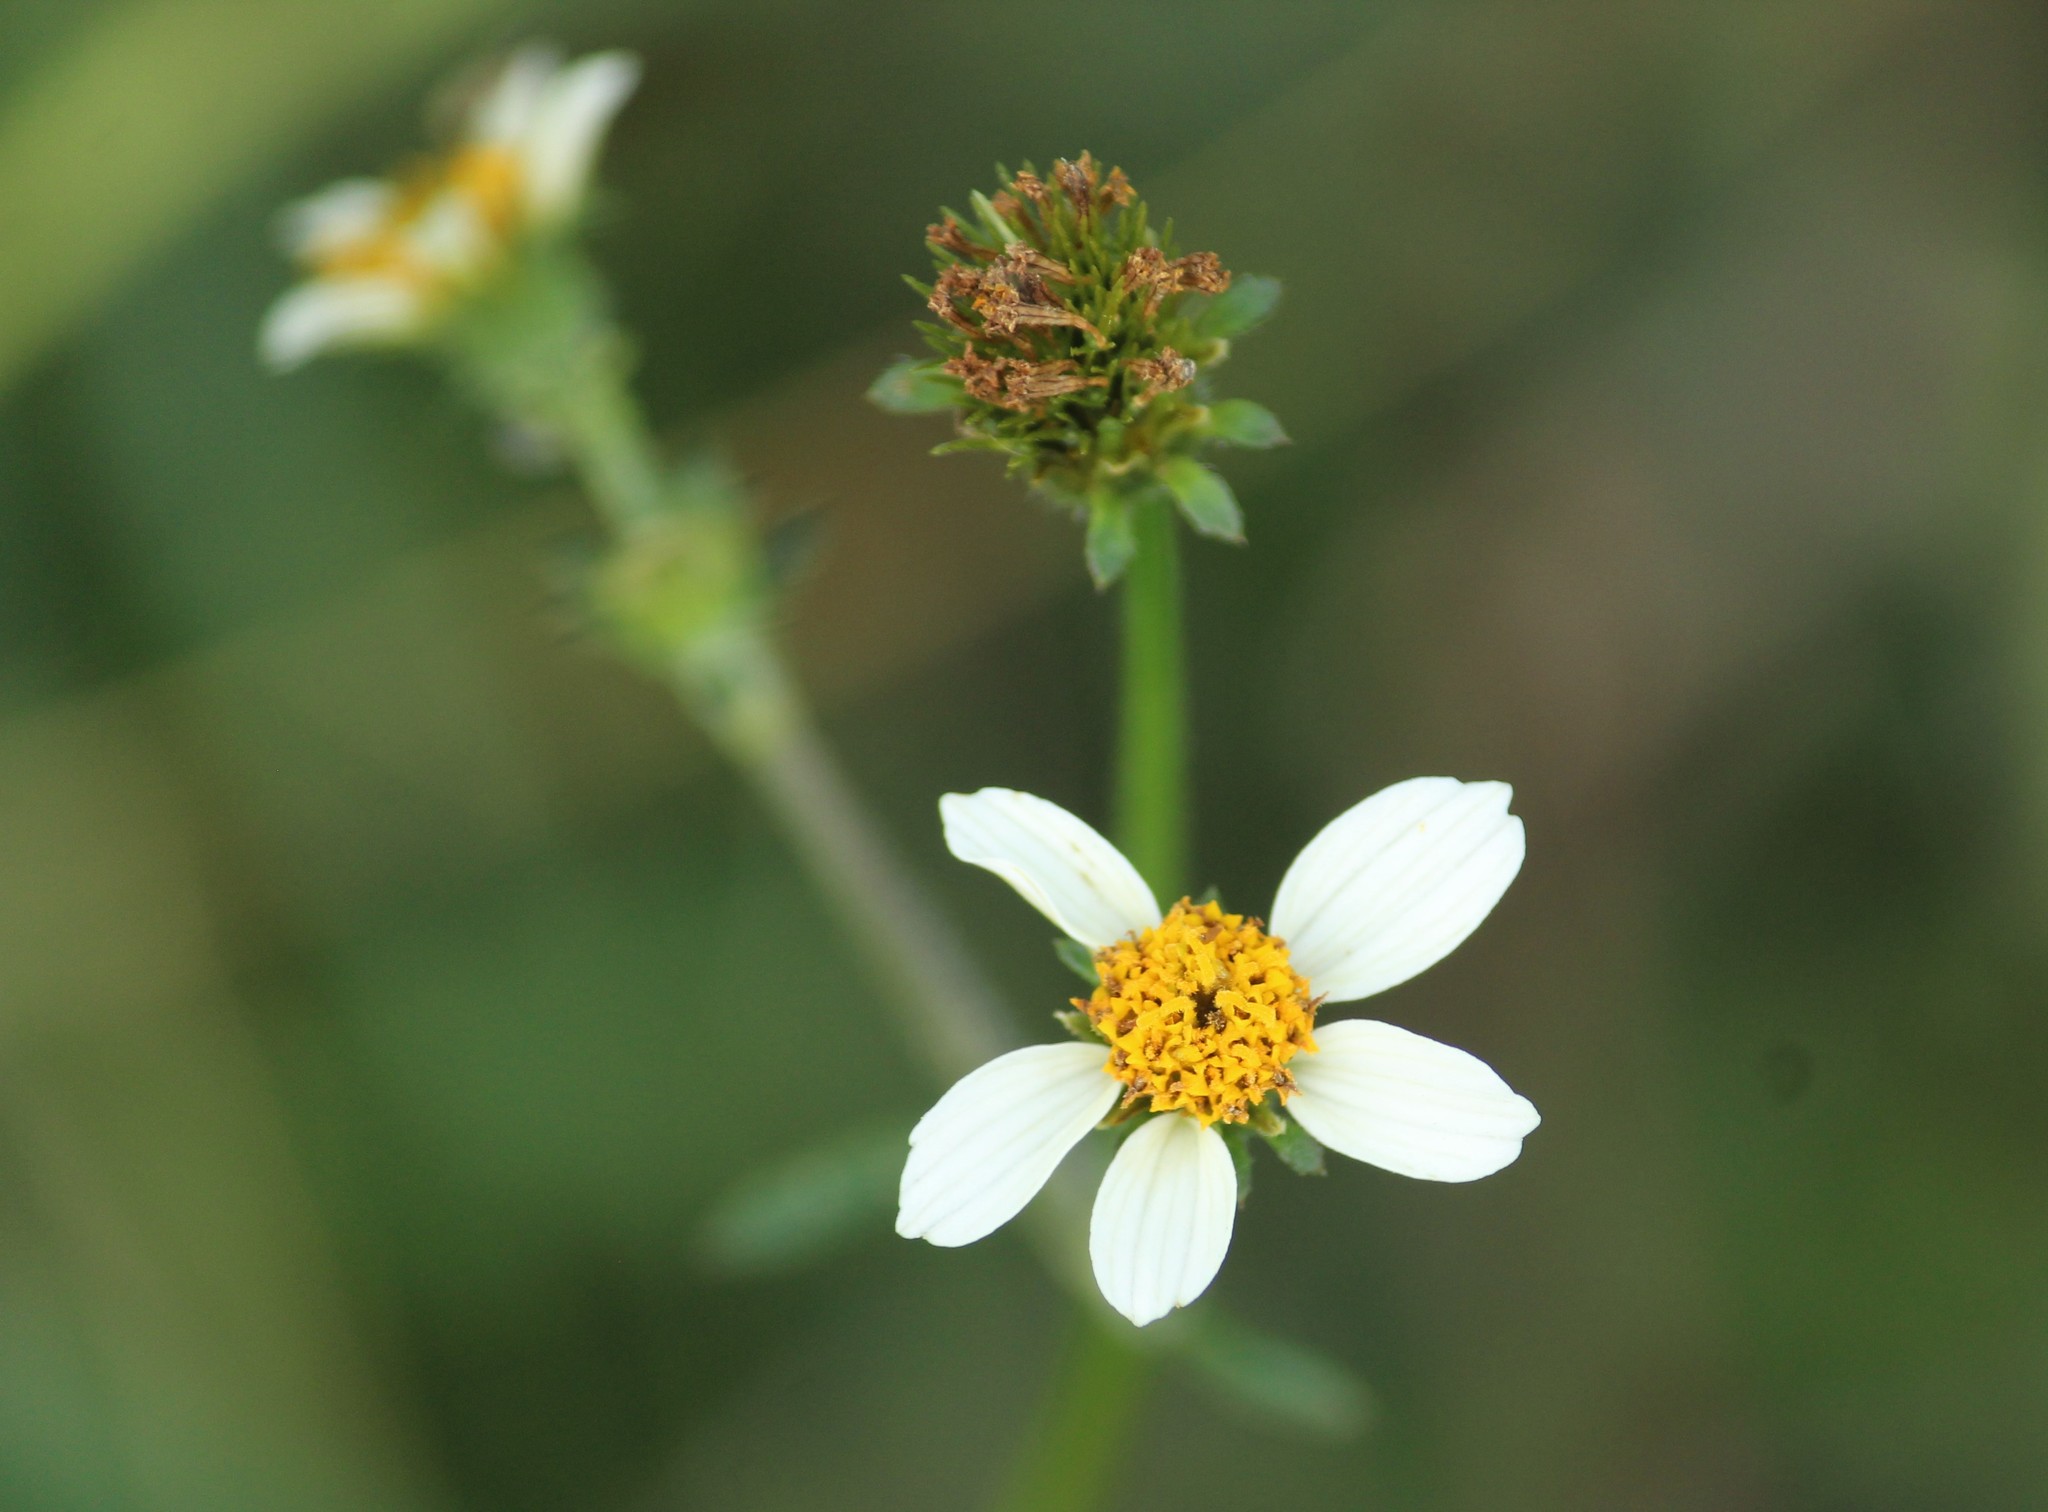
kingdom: Plantae
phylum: Tracheophyta
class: Magnoliopsida
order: Asterales
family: Asteraceae
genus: Bidens
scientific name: Bidens alba
